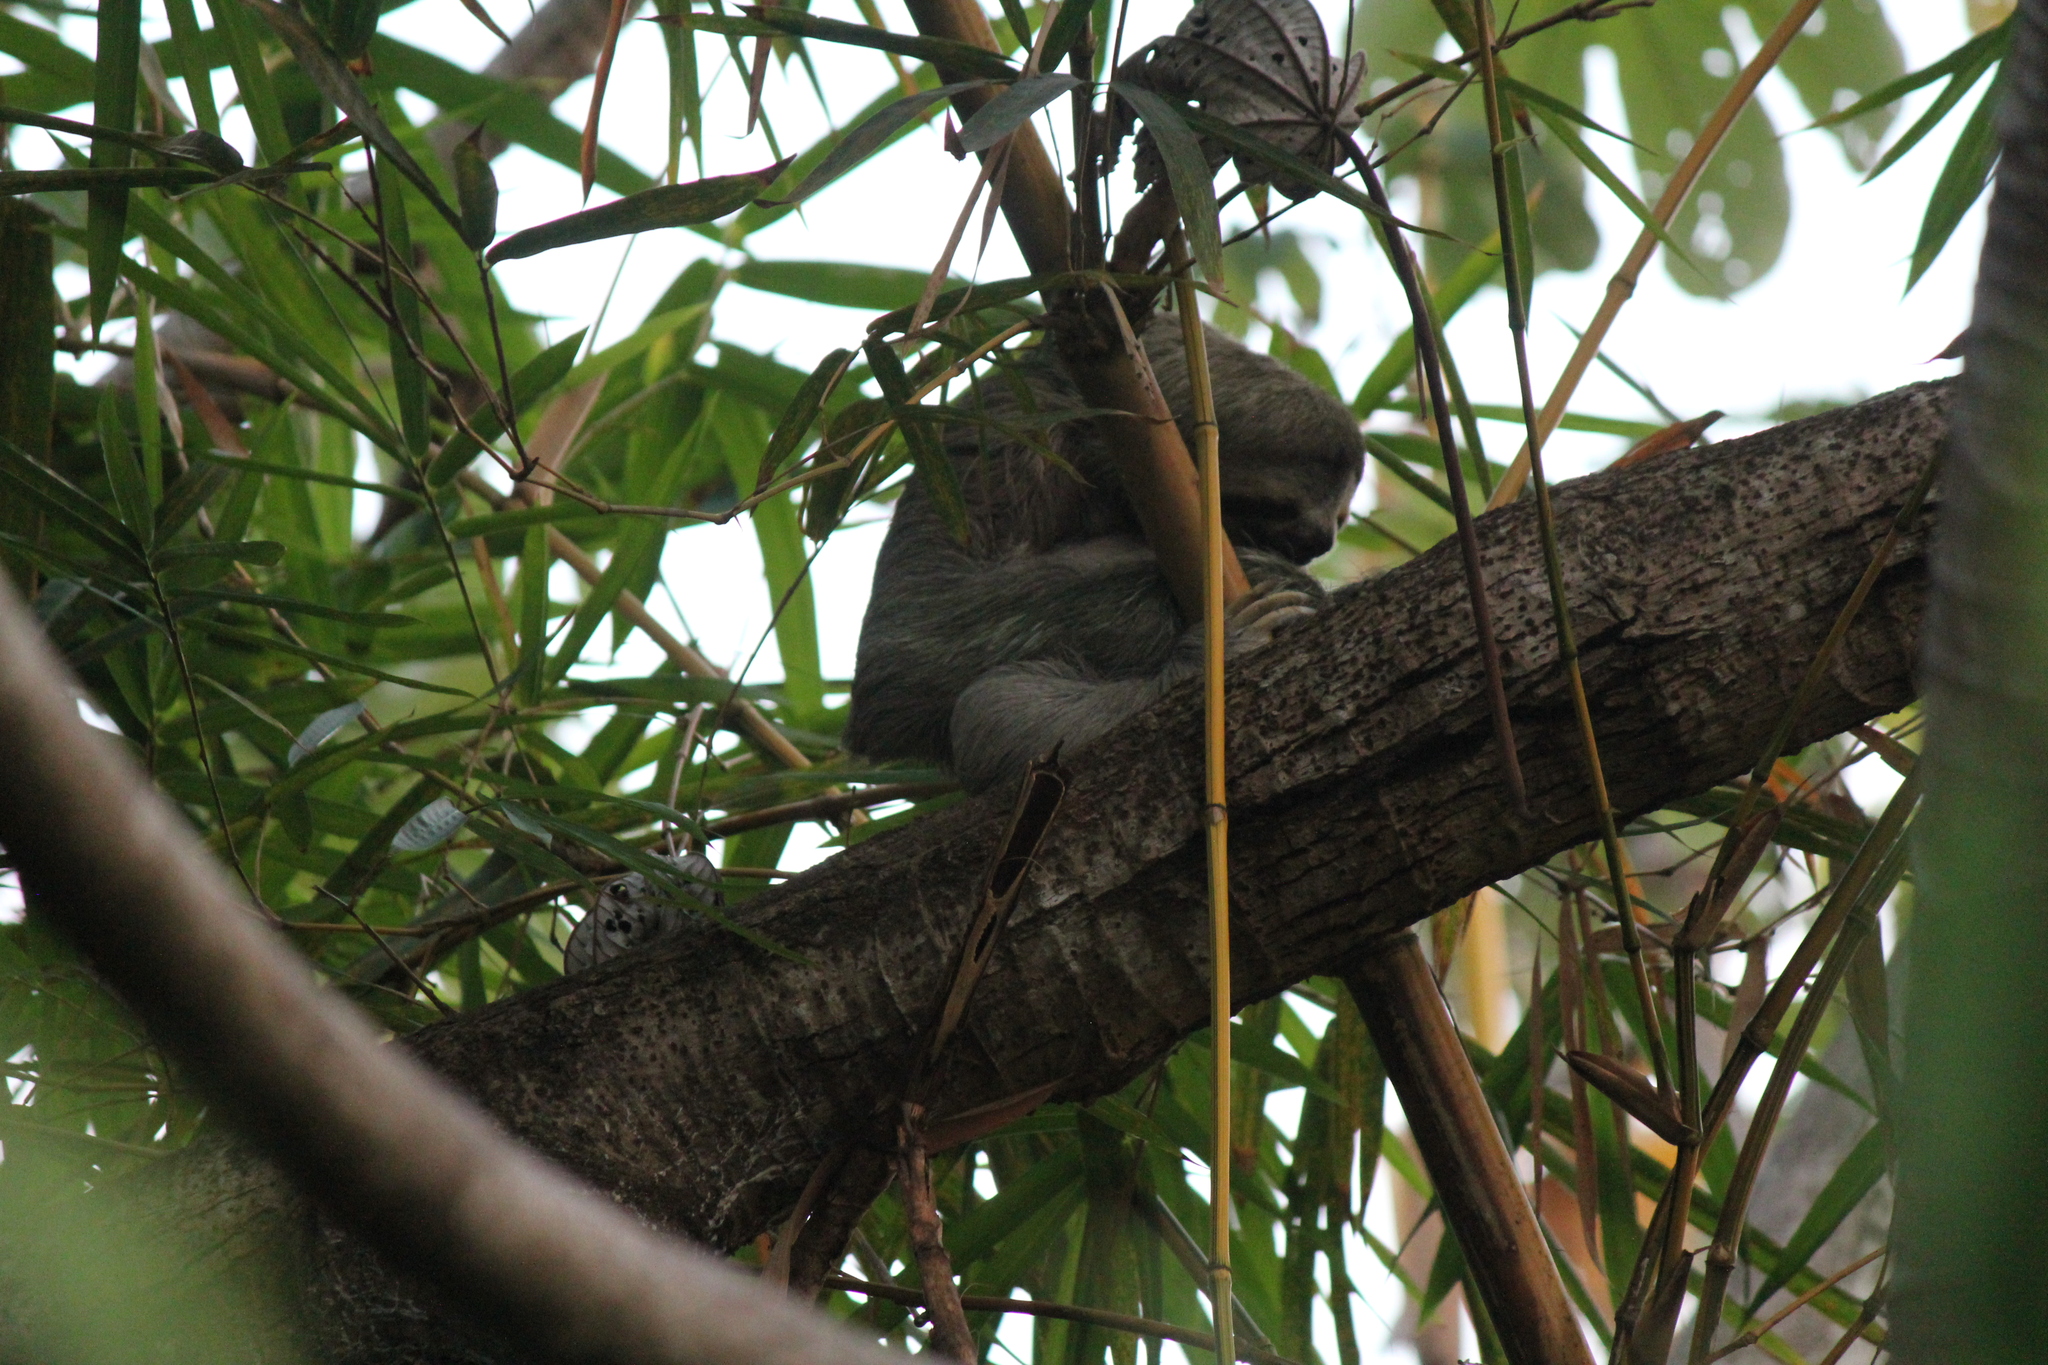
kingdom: Animalia
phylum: Chordata
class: Mammalia
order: Pilosa
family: Bradypodidae
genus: Bradypus
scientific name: Bradypus variegatus
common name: Brown-throated three-toed sloth
